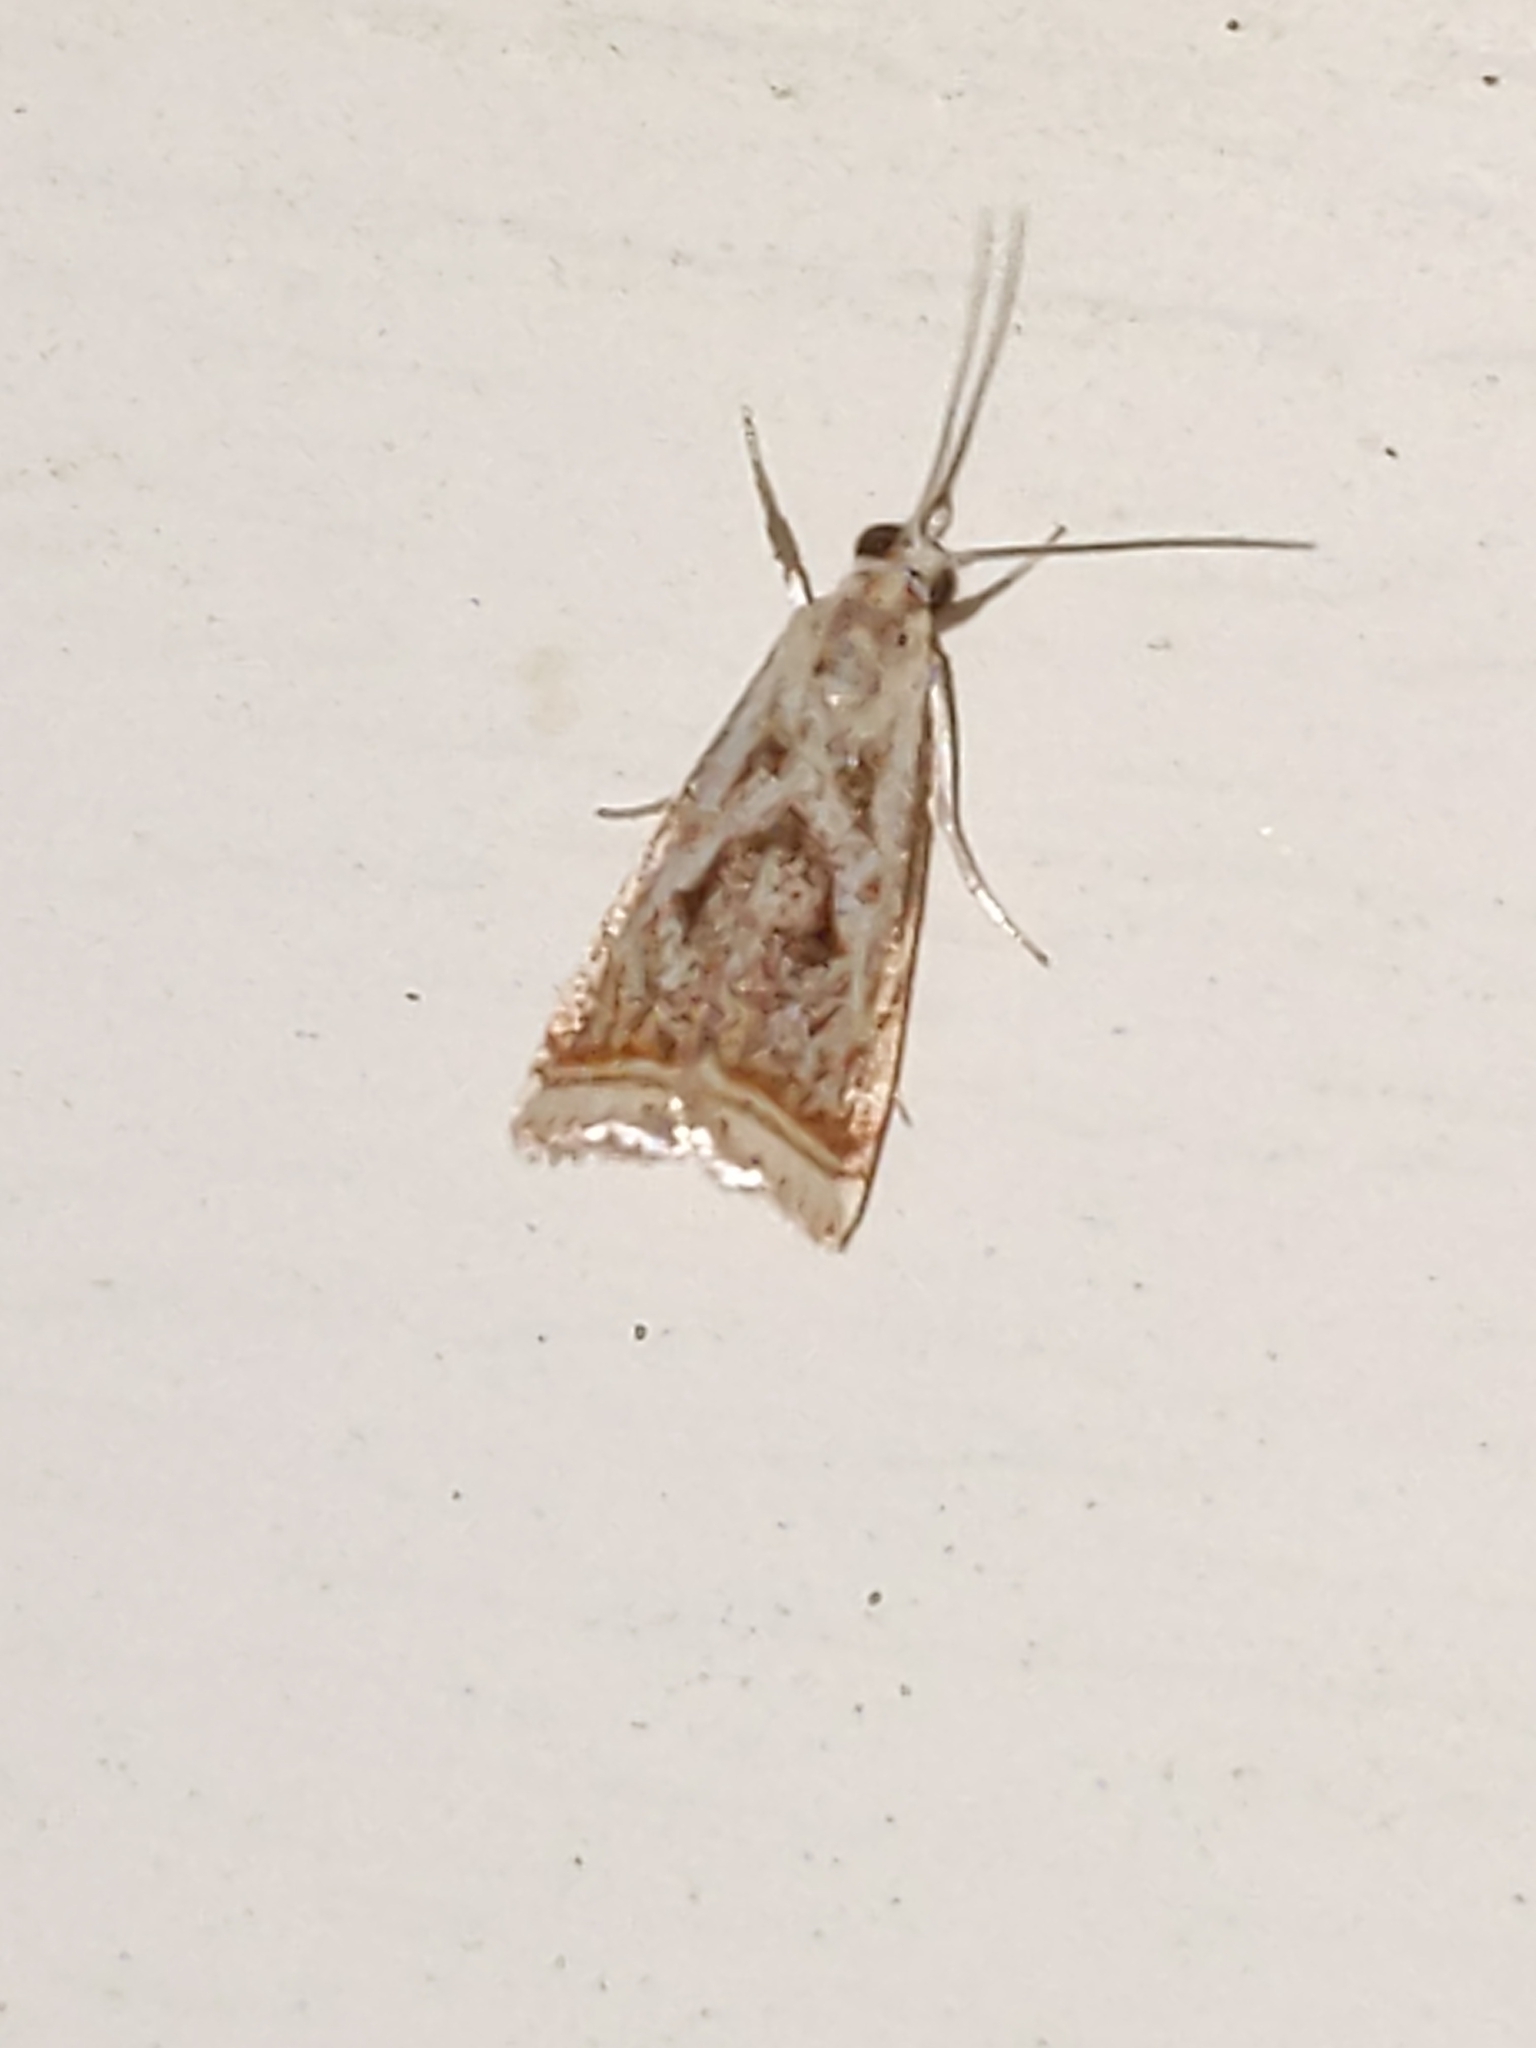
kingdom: Animalia
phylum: Arthropoda
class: Insecta
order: Lepidoptera
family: Crambidae
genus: Microcrambus
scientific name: Microcrambus elegans
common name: Elegant grass-veneer
